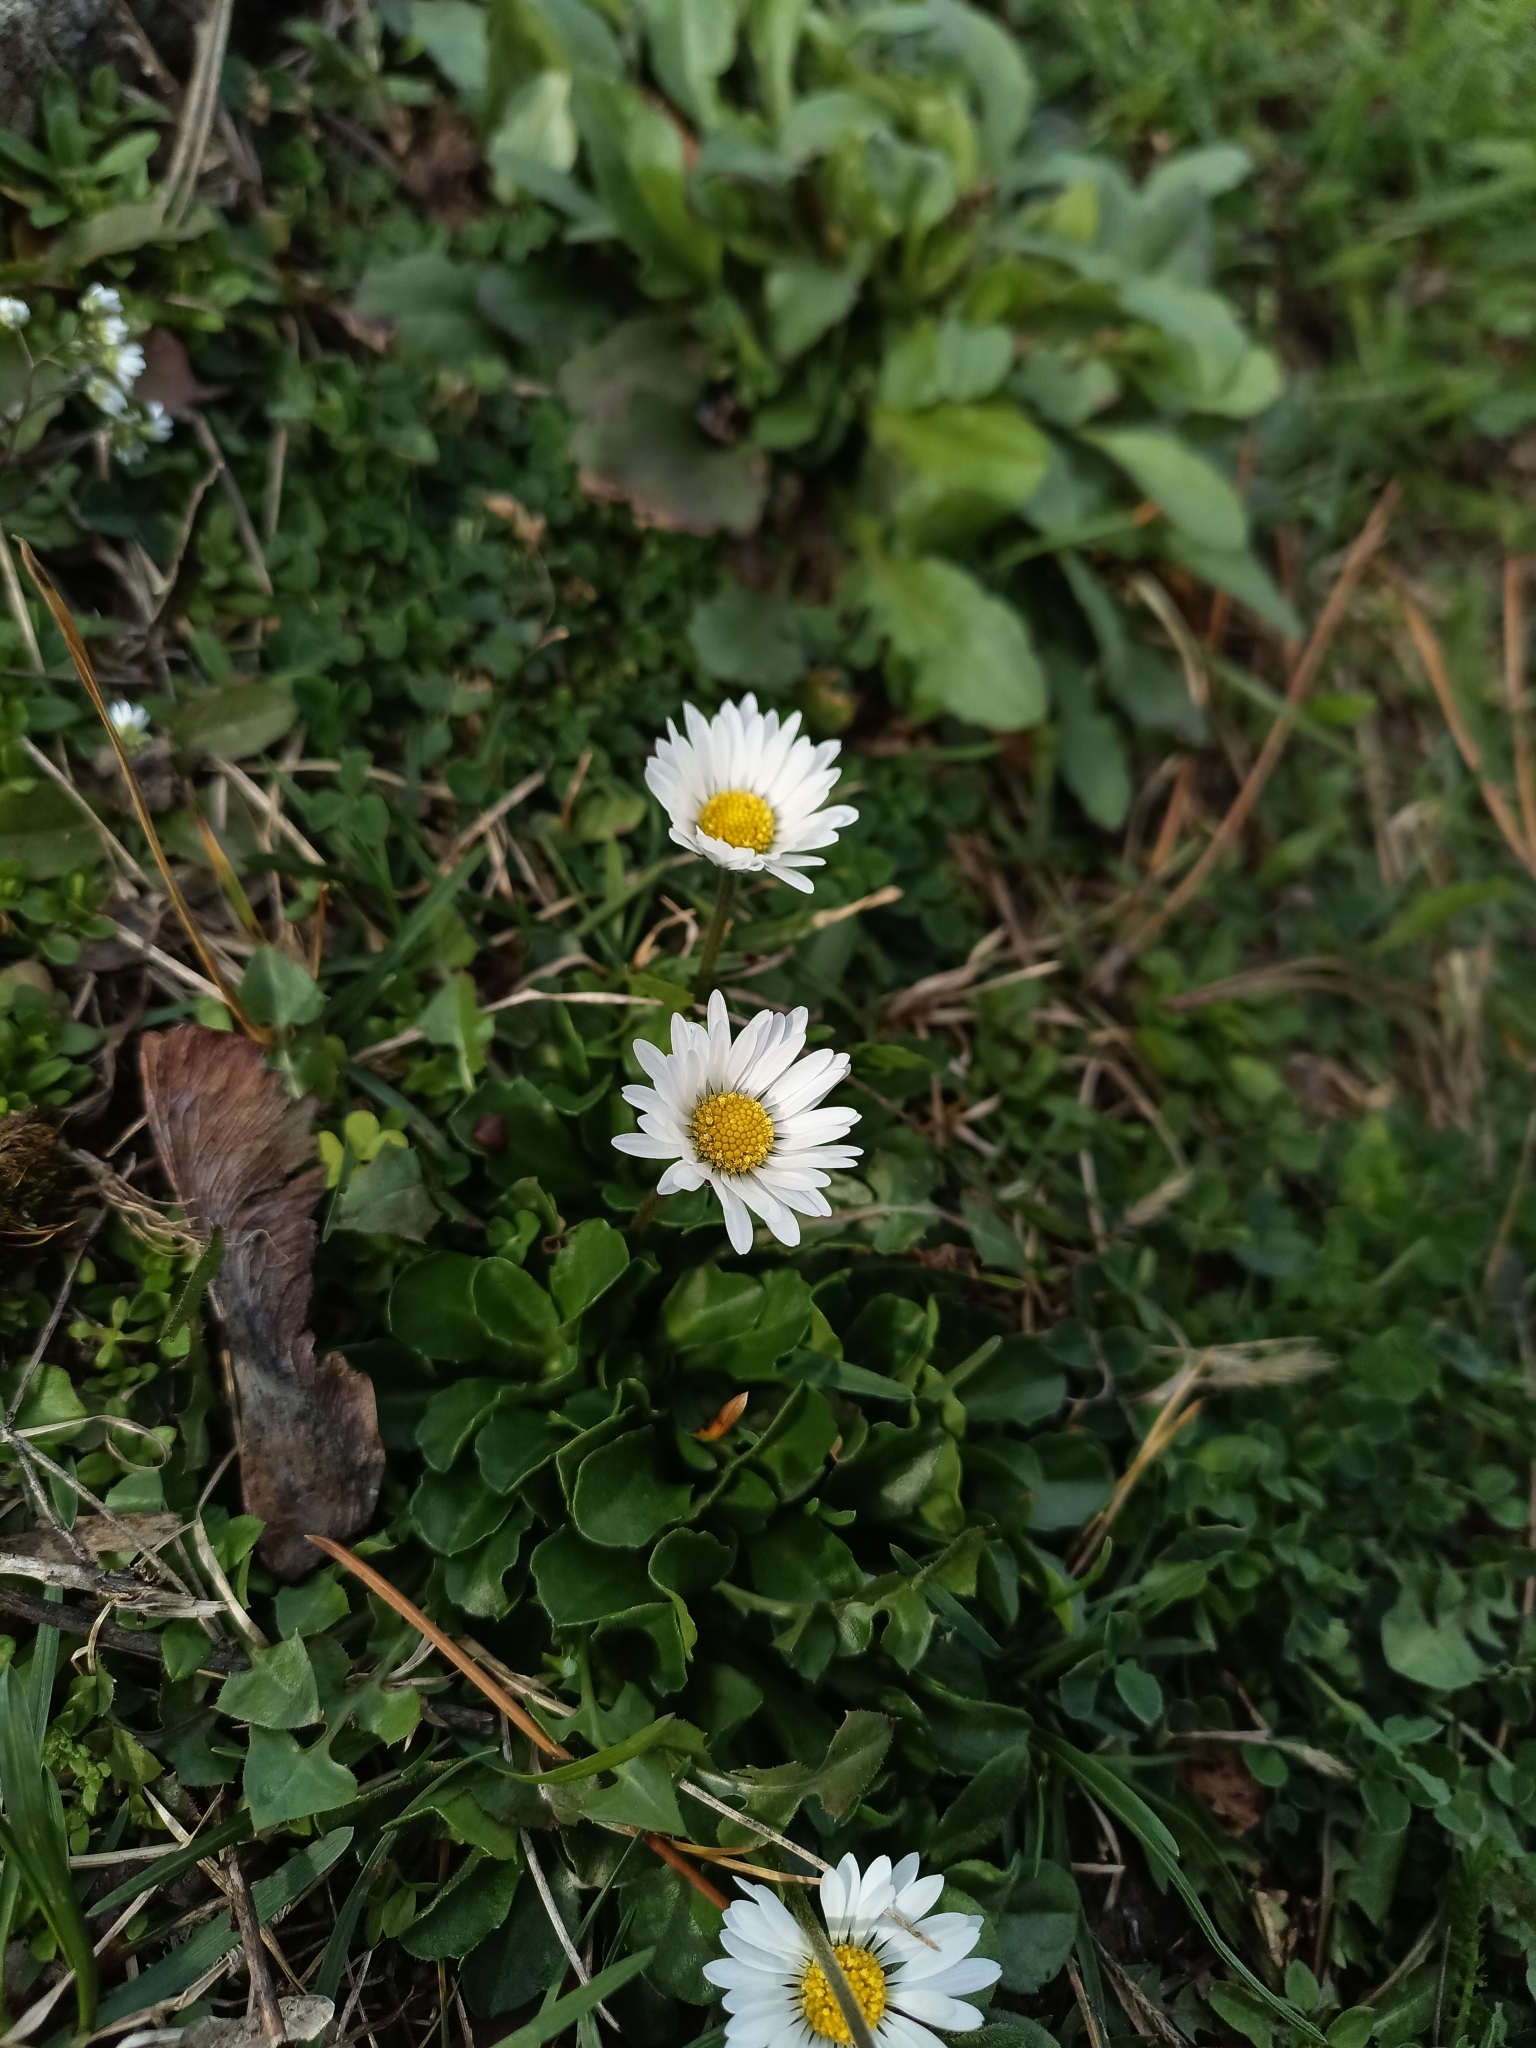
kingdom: Plantae
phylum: Tracheophyta
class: Magnoliopsida
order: Asterales
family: Asteraceae
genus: Bellis
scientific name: Bellis perennis
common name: Lawndaisy
